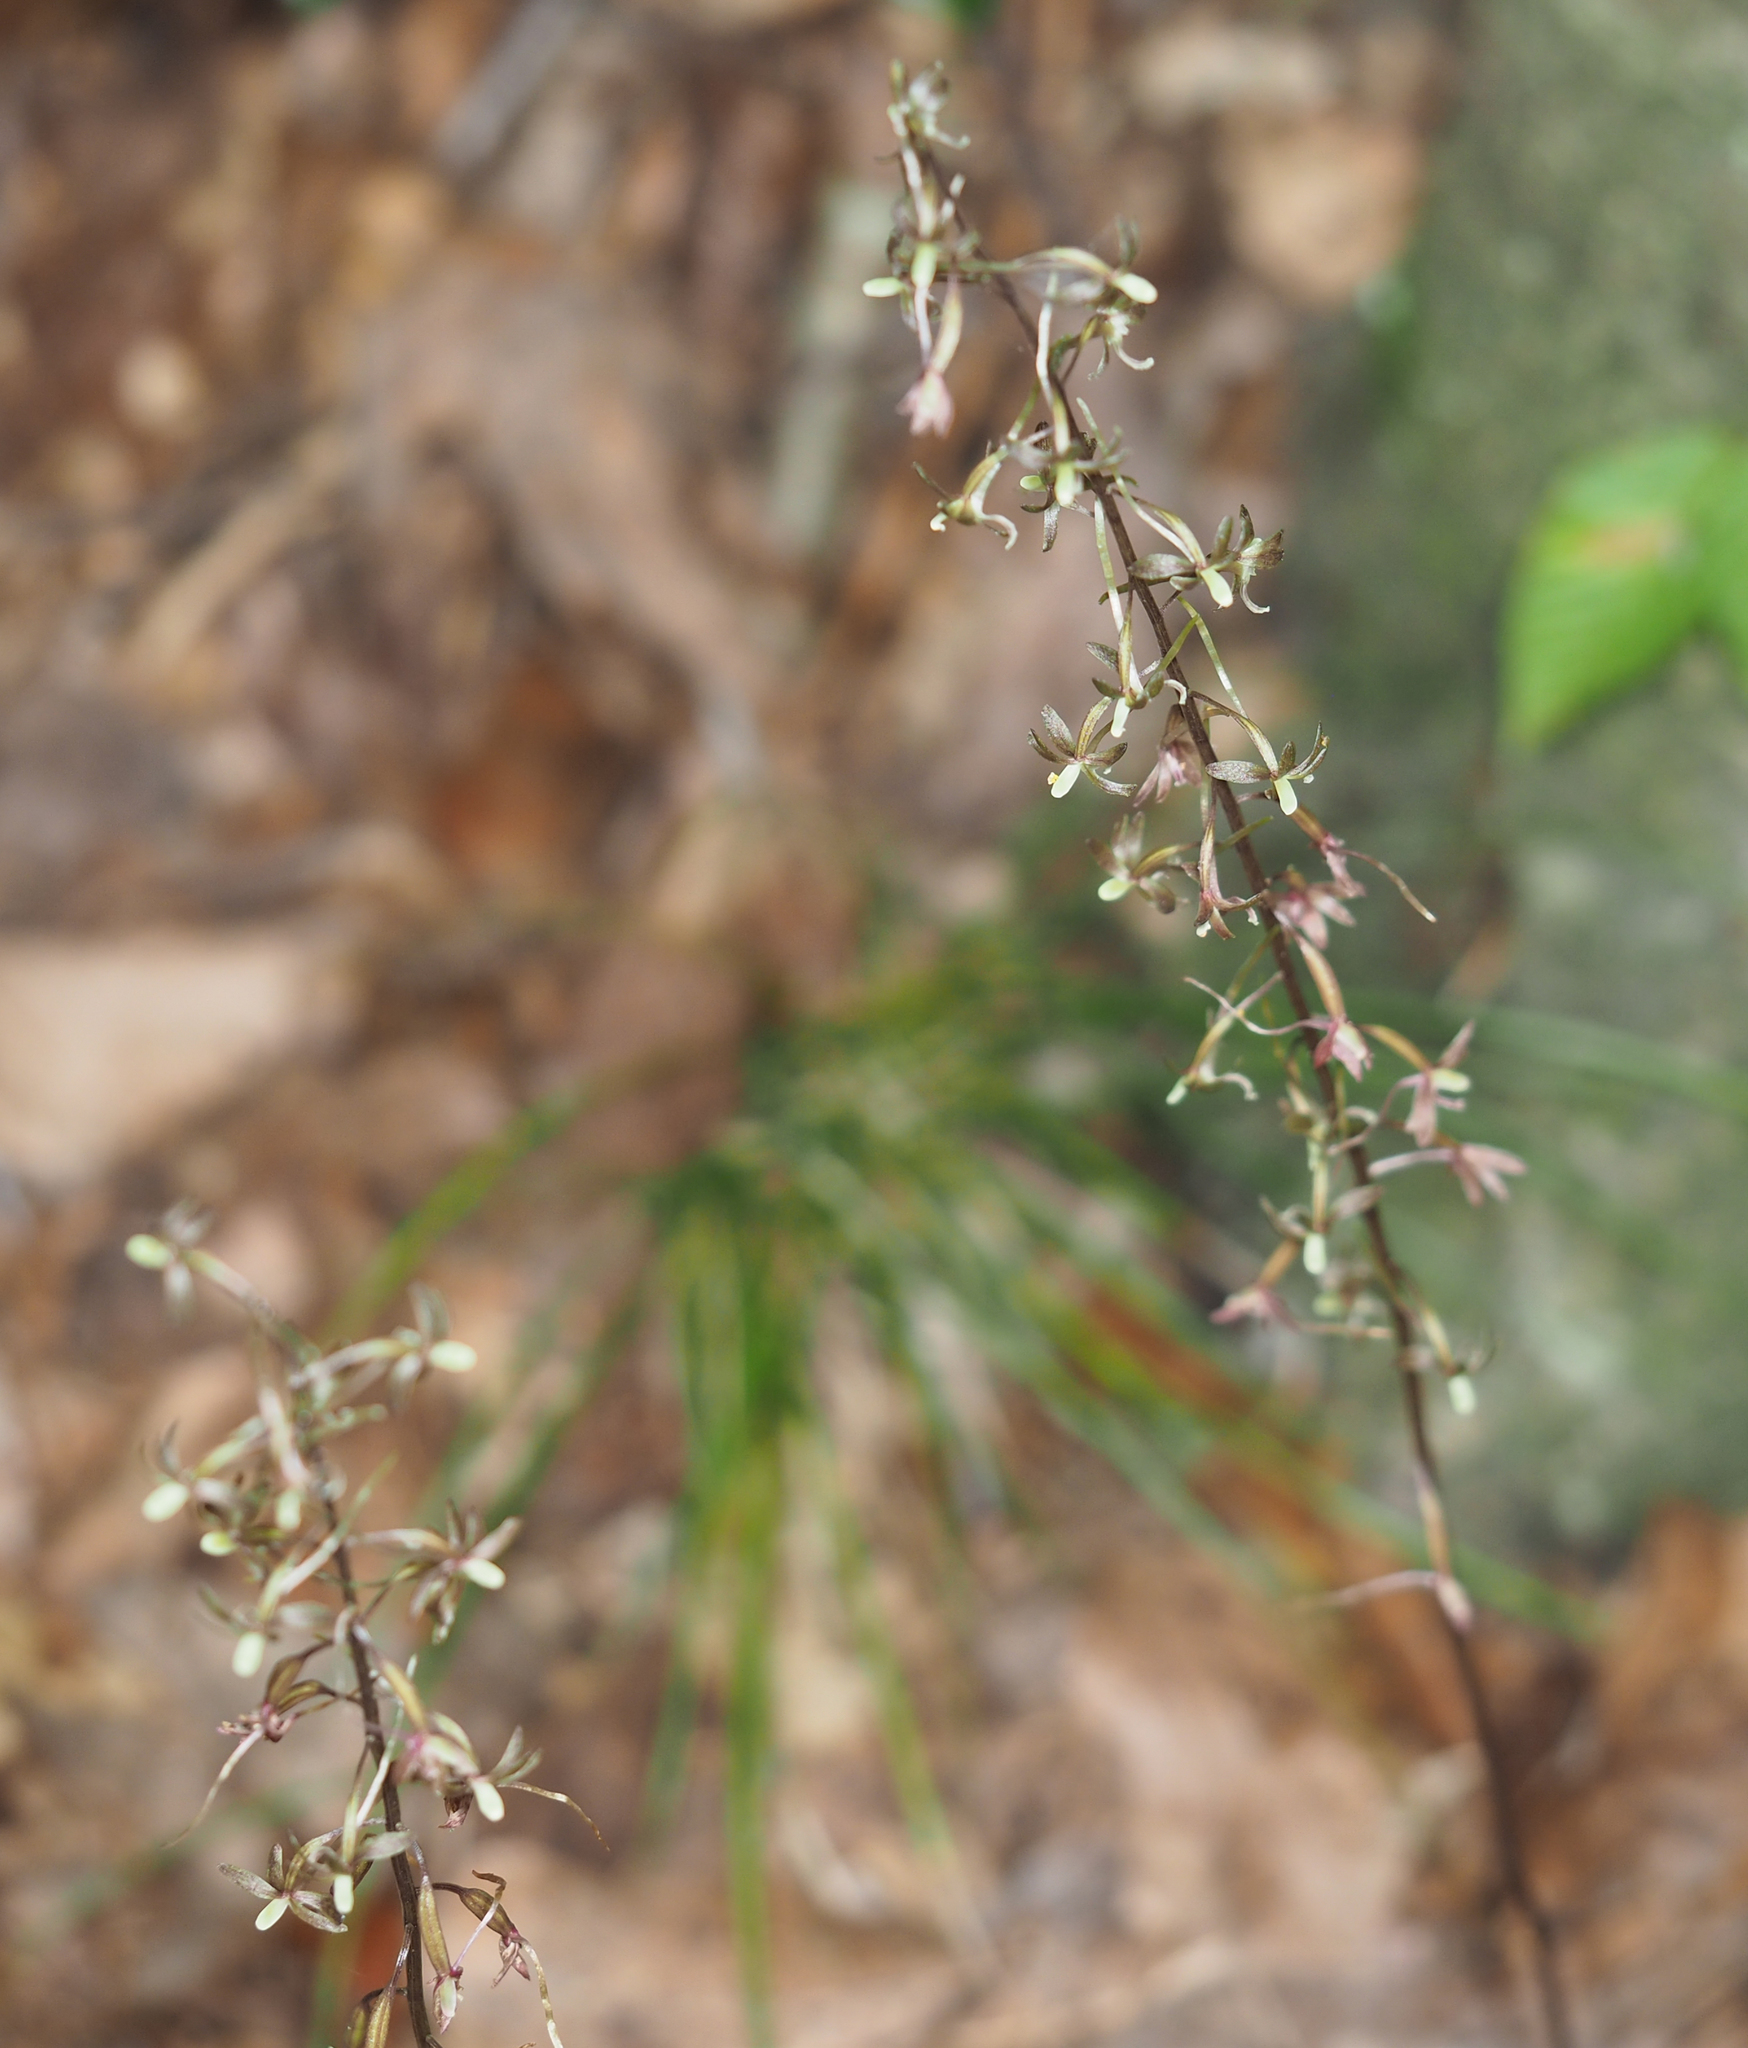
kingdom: Plantae
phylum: Tracheophyta
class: Liliopsida
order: Asparagales
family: Orchidaceae
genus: Tipularia
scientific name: Tipularia discolor
